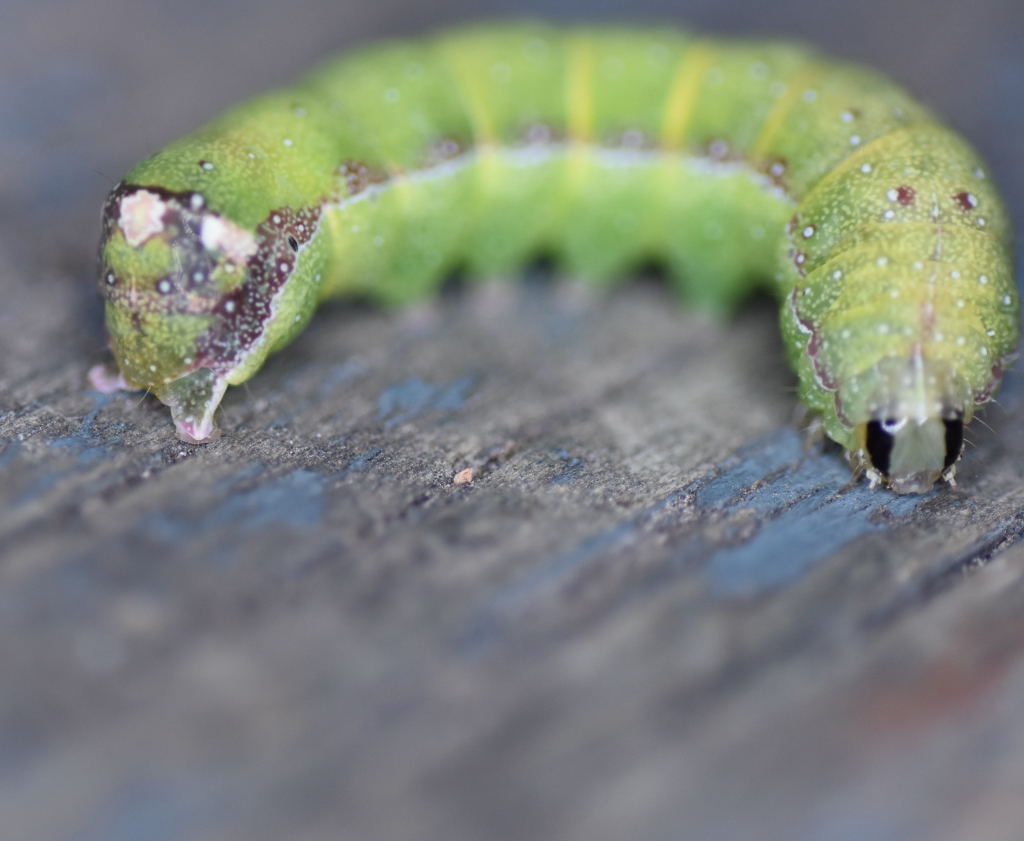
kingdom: Animalia
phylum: Arthropoda
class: Insecta
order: Lepidoptera
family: Noctuidae
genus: Condica
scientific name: Condica vecors
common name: Dusky groundling
